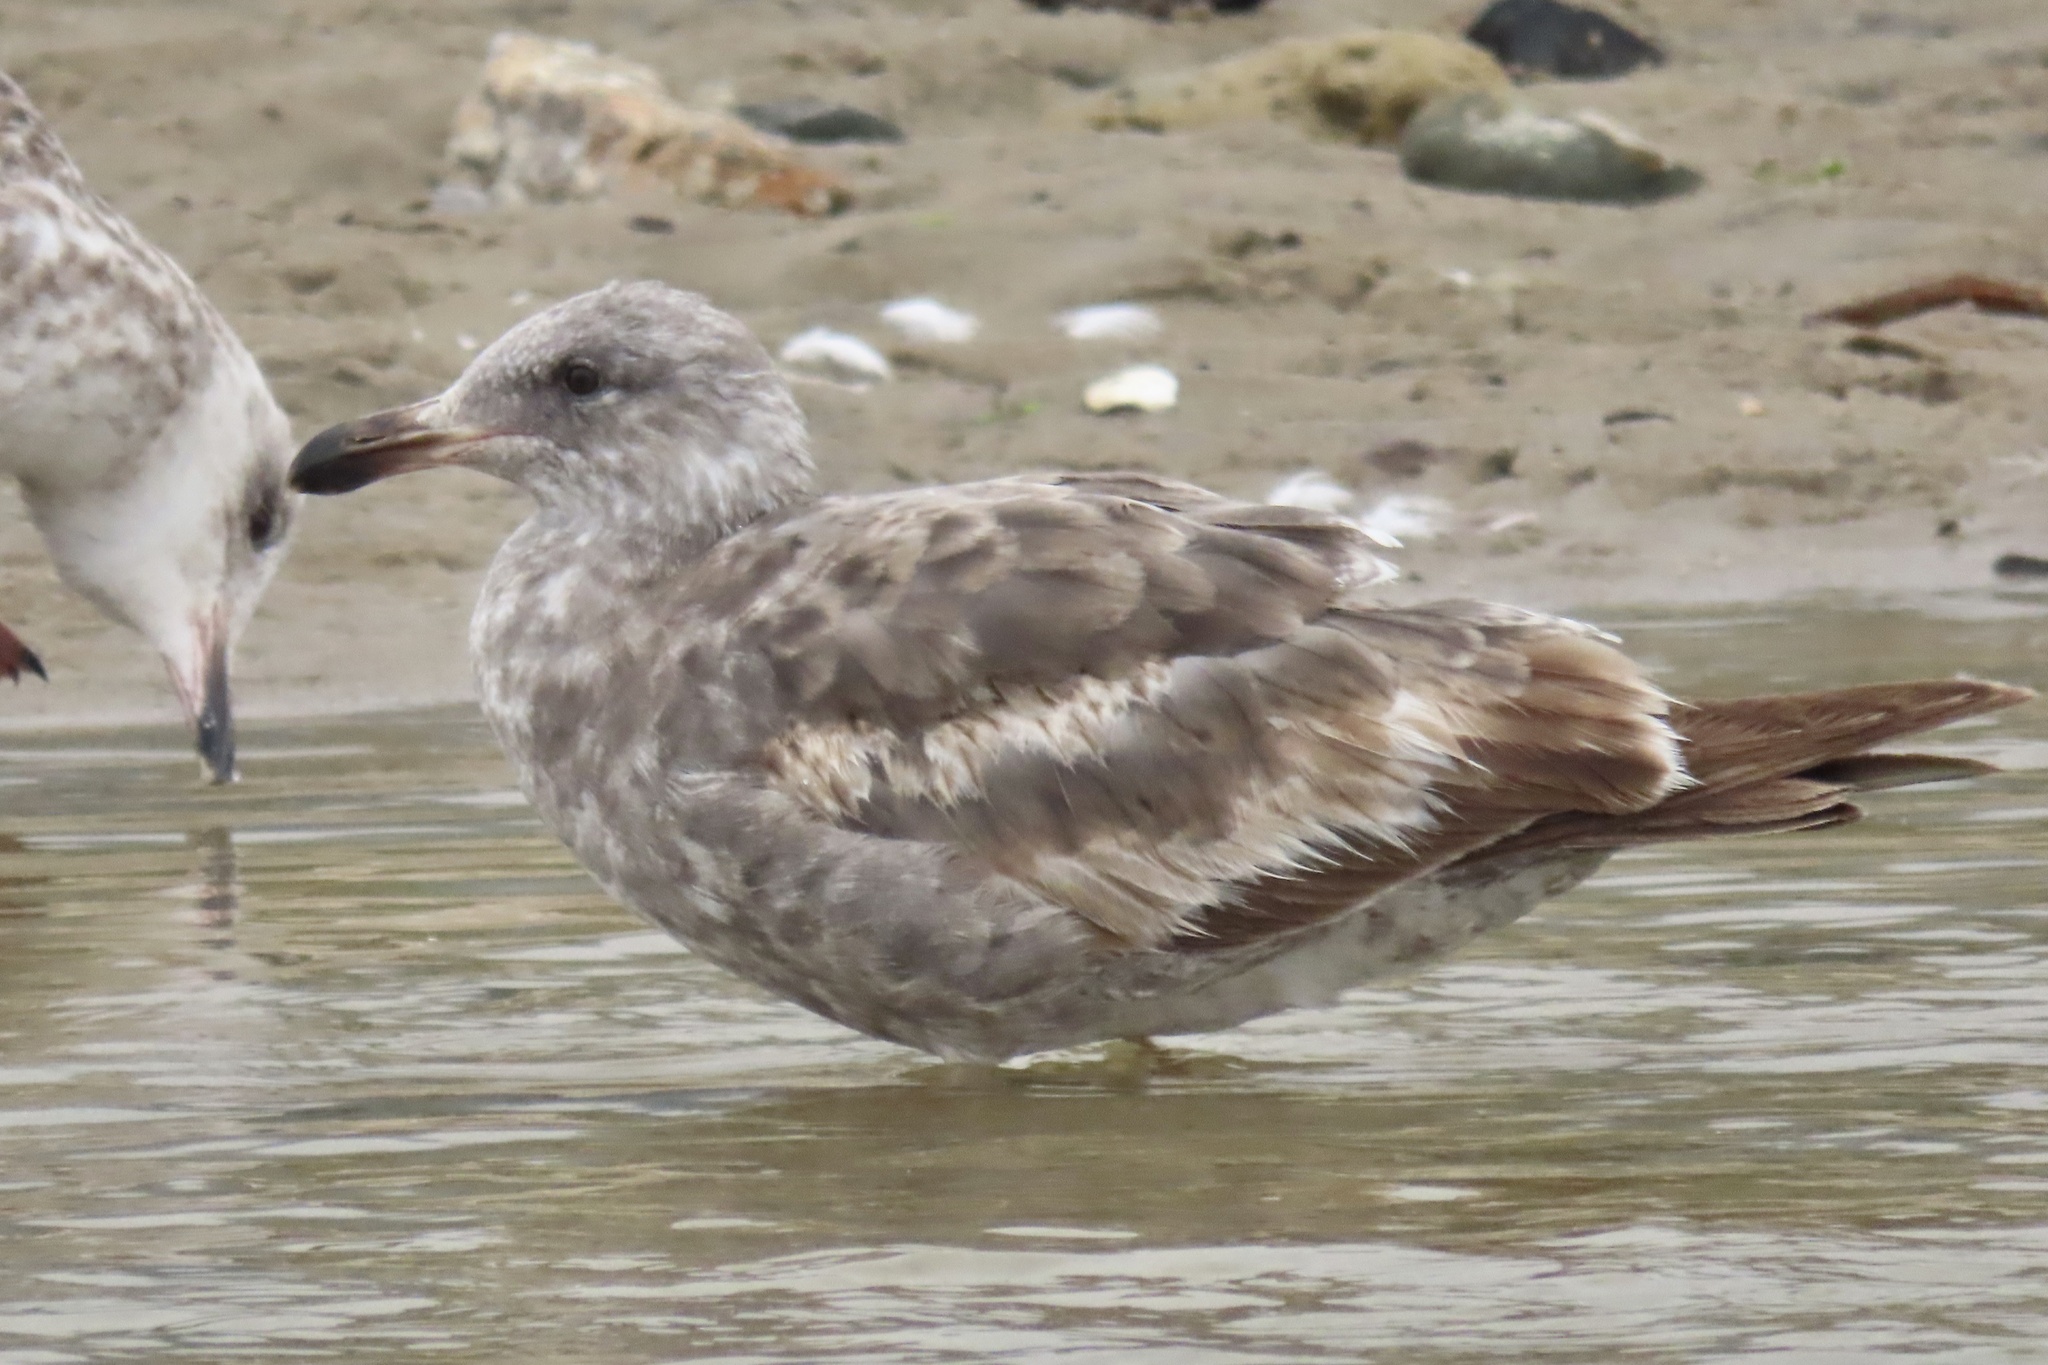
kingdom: Animalia
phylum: Chordata
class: Aves
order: Charadriiformes
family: Laridae
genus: Larus
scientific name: Larus occidentalis
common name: Western gull
